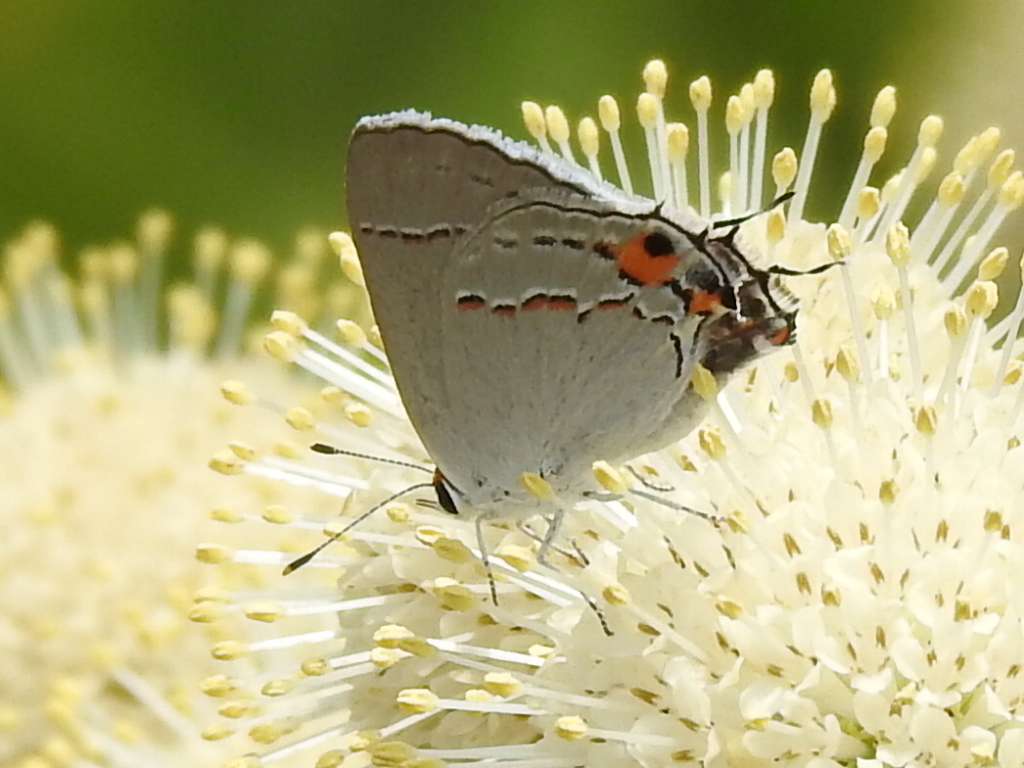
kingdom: Animalia
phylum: Arthropoda
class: Insecta
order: Lepidoptera
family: Lycaenidae
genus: Strymon
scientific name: Strymon melinus
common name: Gray hairstreak
